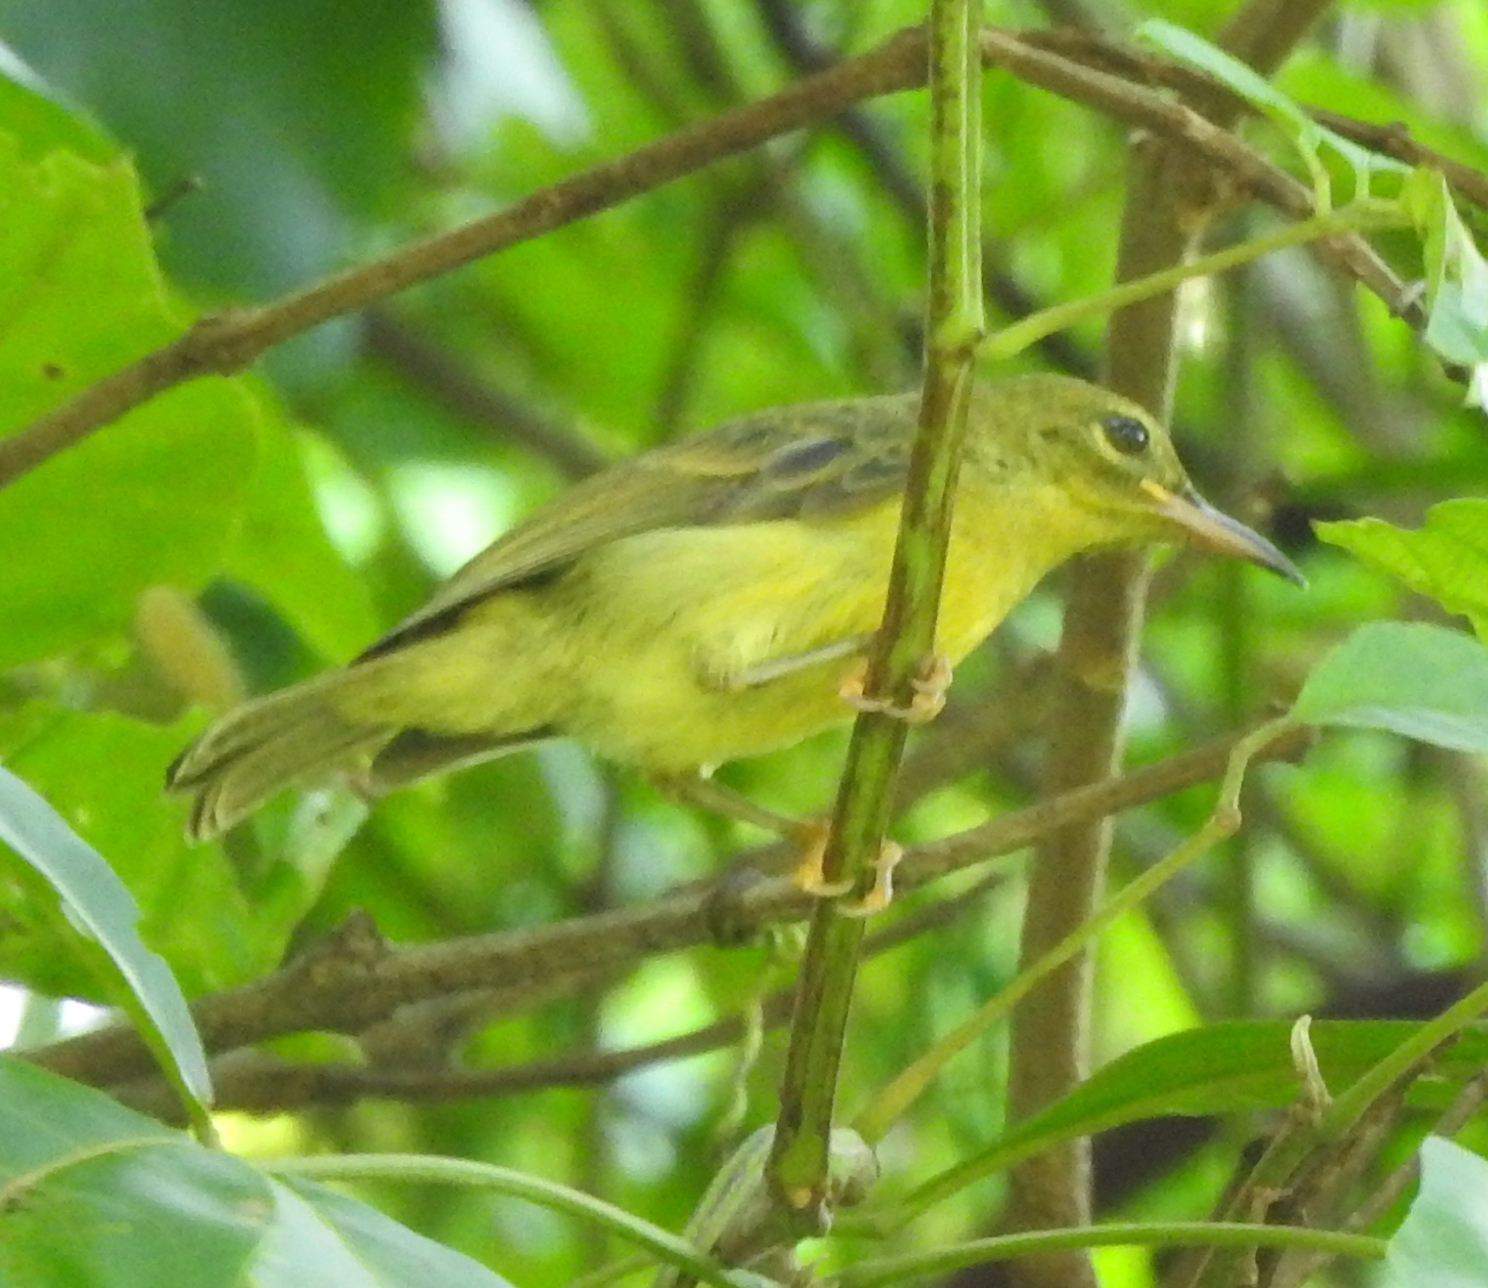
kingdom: Animalia
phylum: Chordata
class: Aves
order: Passeriformes
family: Nectariniidae
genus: Anthreptes
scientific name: Anthreptes malacensis
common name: Brown-throated sunbird
